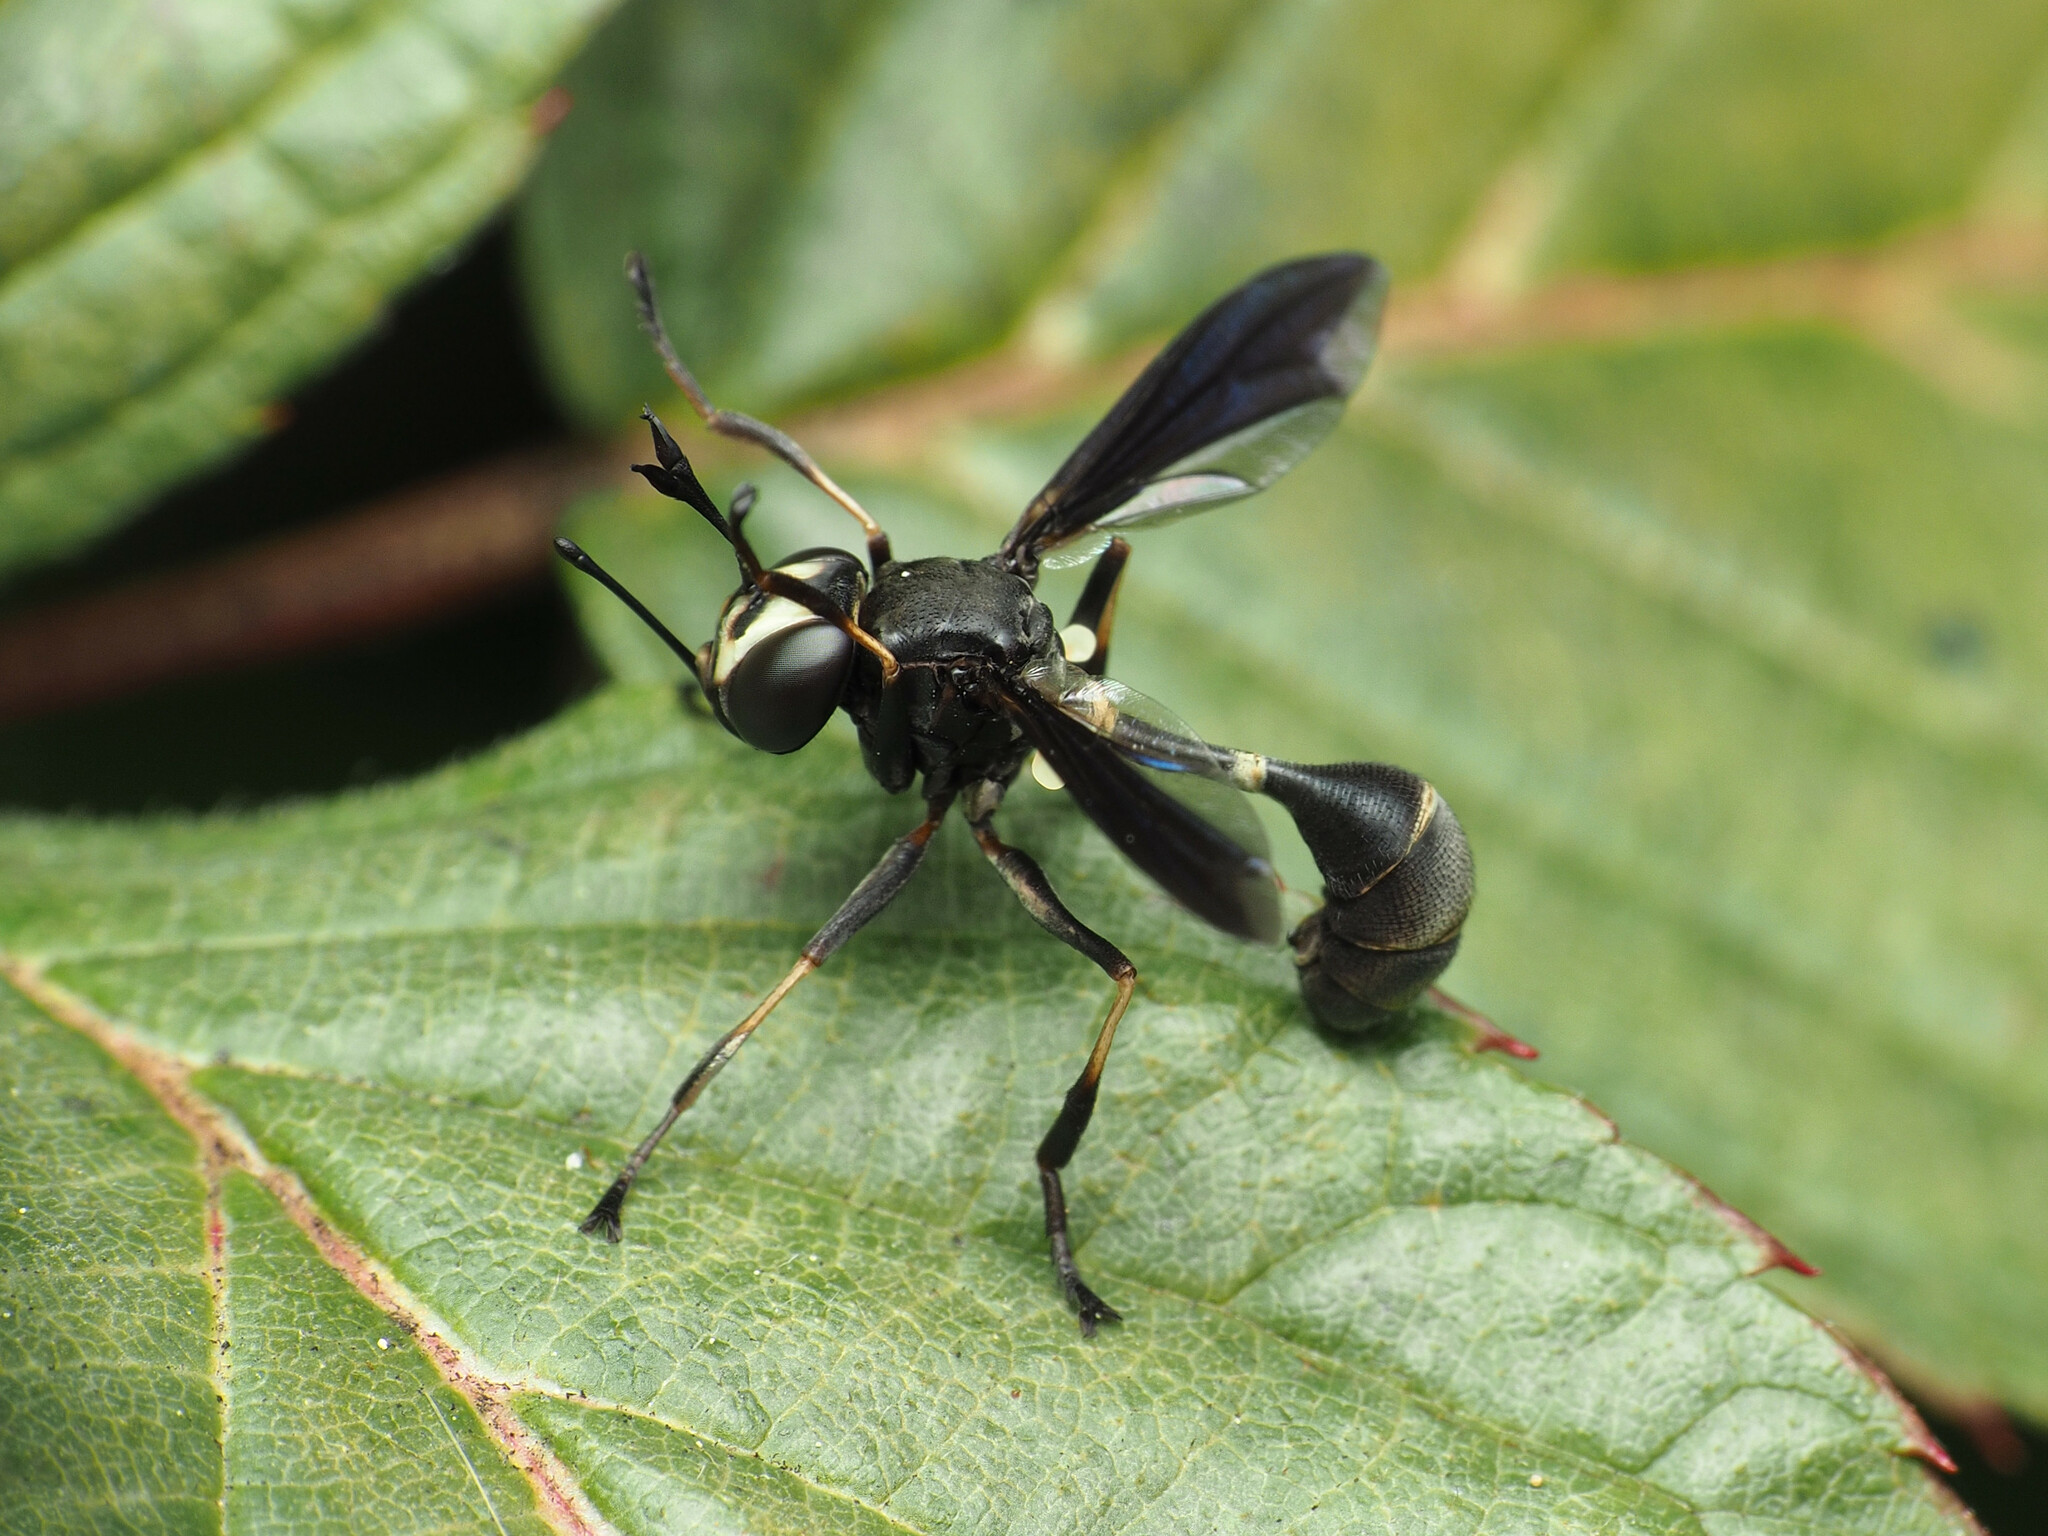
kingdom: Animalia
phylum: Arthropoda
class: Insecta
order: Diptera
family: Conopidae
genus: Physocephala
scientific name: Physocephala tibialis
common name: Common eastern physocephala
